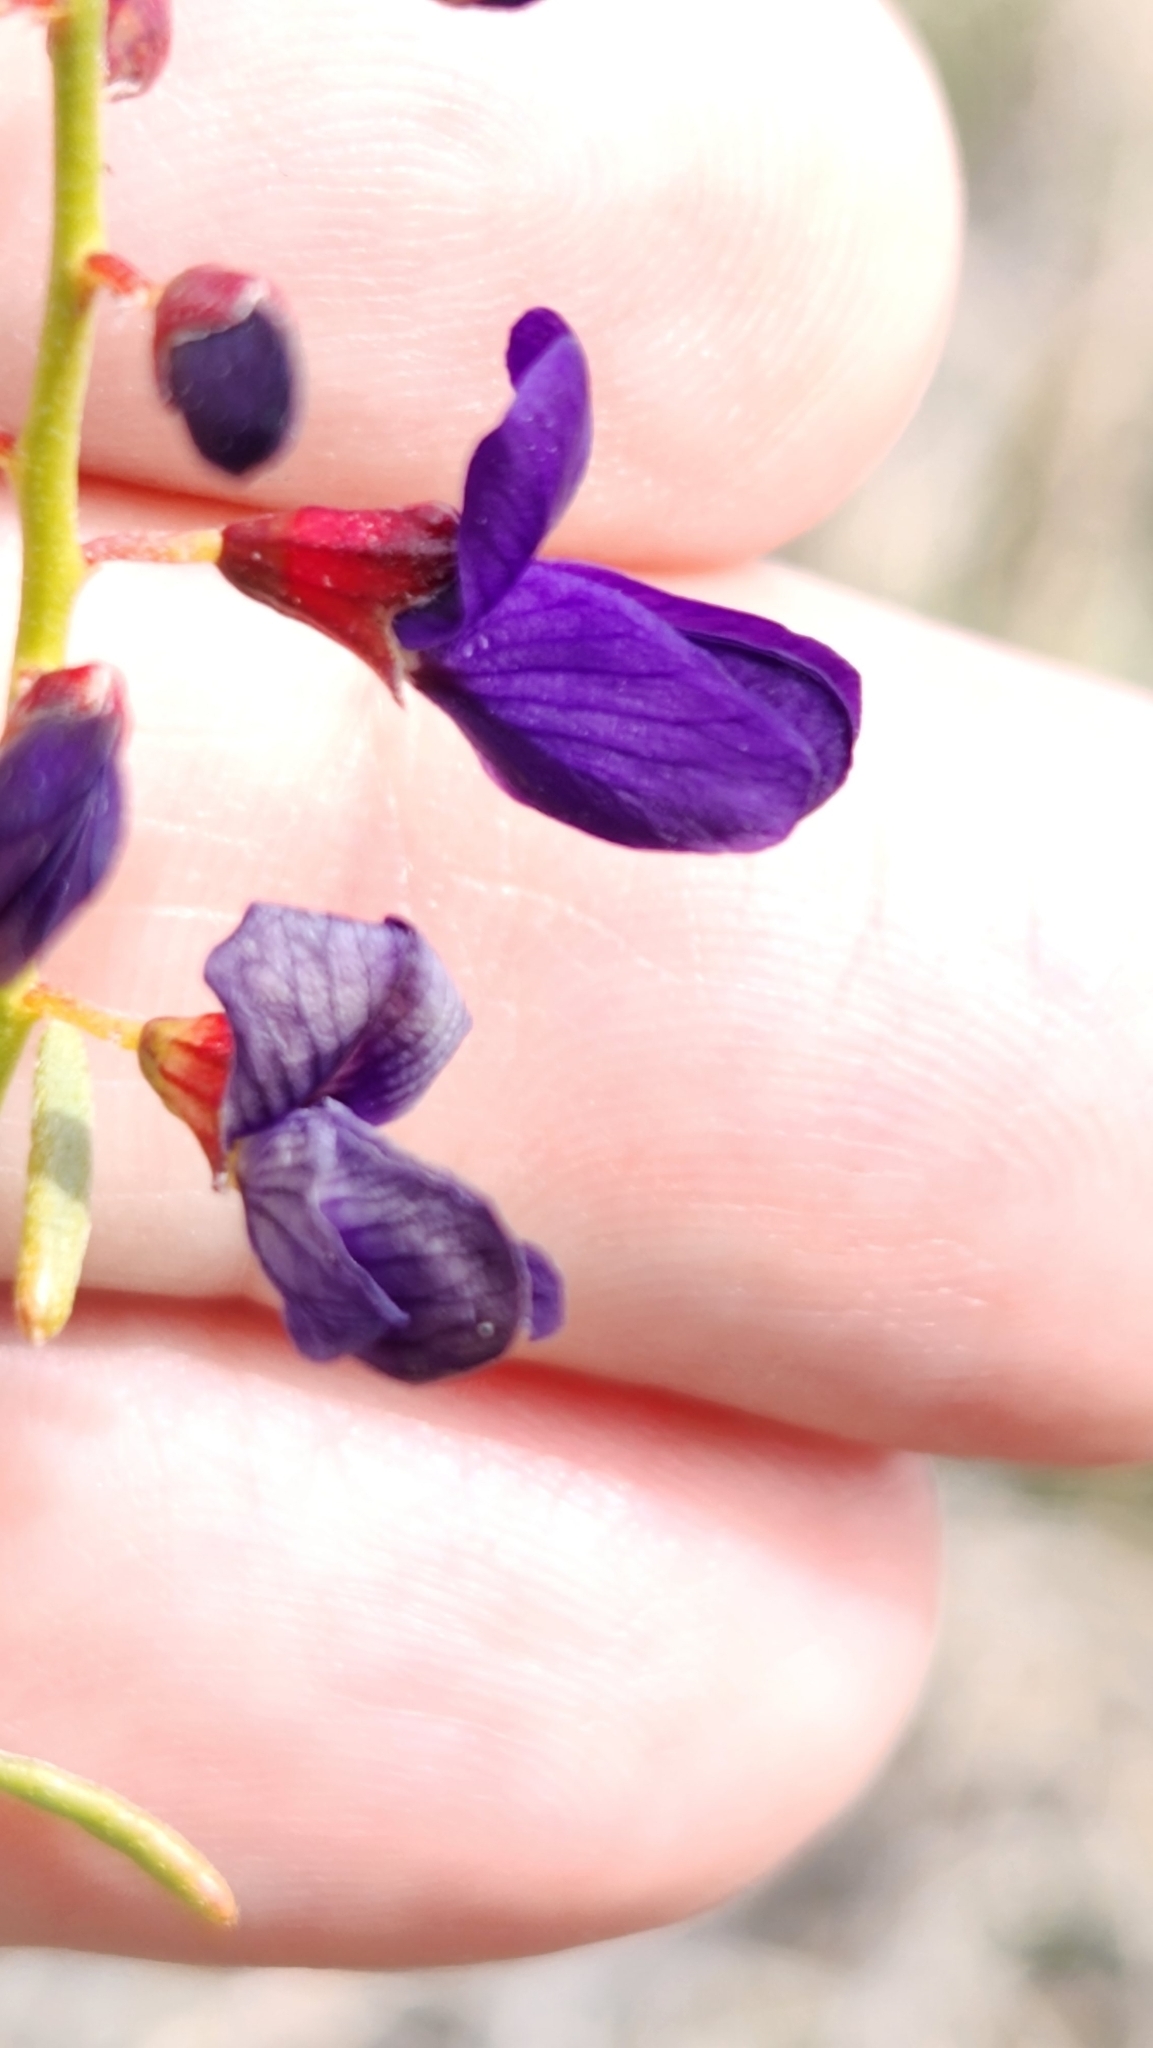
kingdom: Plantae
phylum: Tracheophyta
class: Magnoliopsida
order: Fabales
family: Fabaceae
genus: Psorothamnus
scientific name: Psorothamnus schottii
